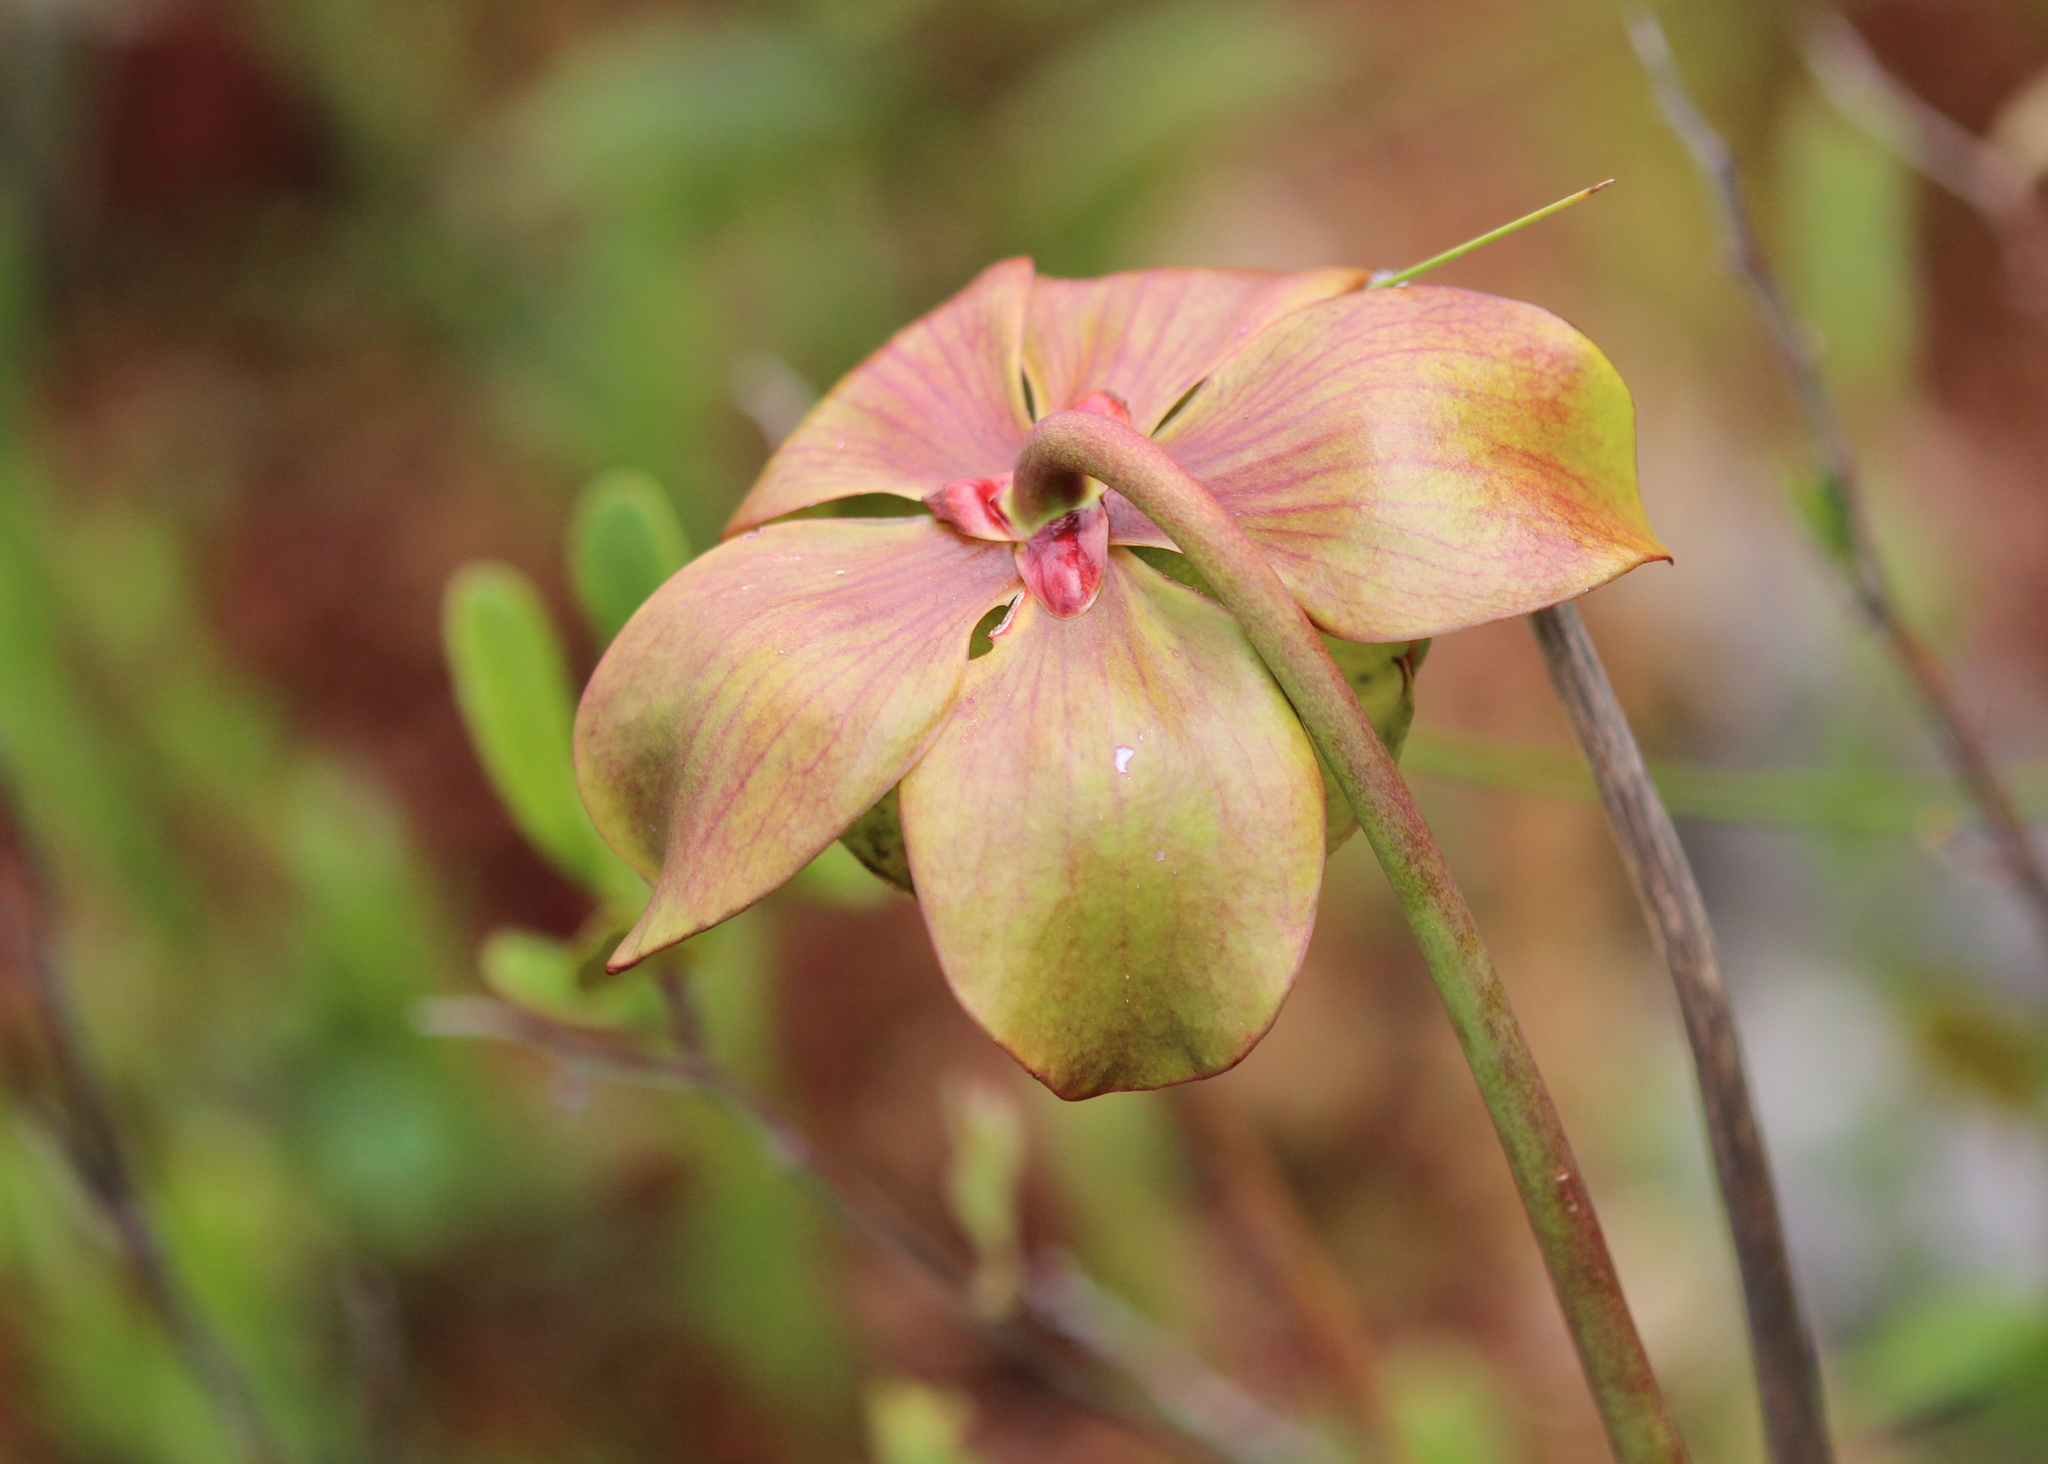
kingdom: Plantae
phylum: Tracheophyta
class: Magnoliopsida
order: Ericales
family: Sarraceniaceae
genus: Sarracenia
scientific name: Sarracenia purpurea
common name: Pitcherplant
